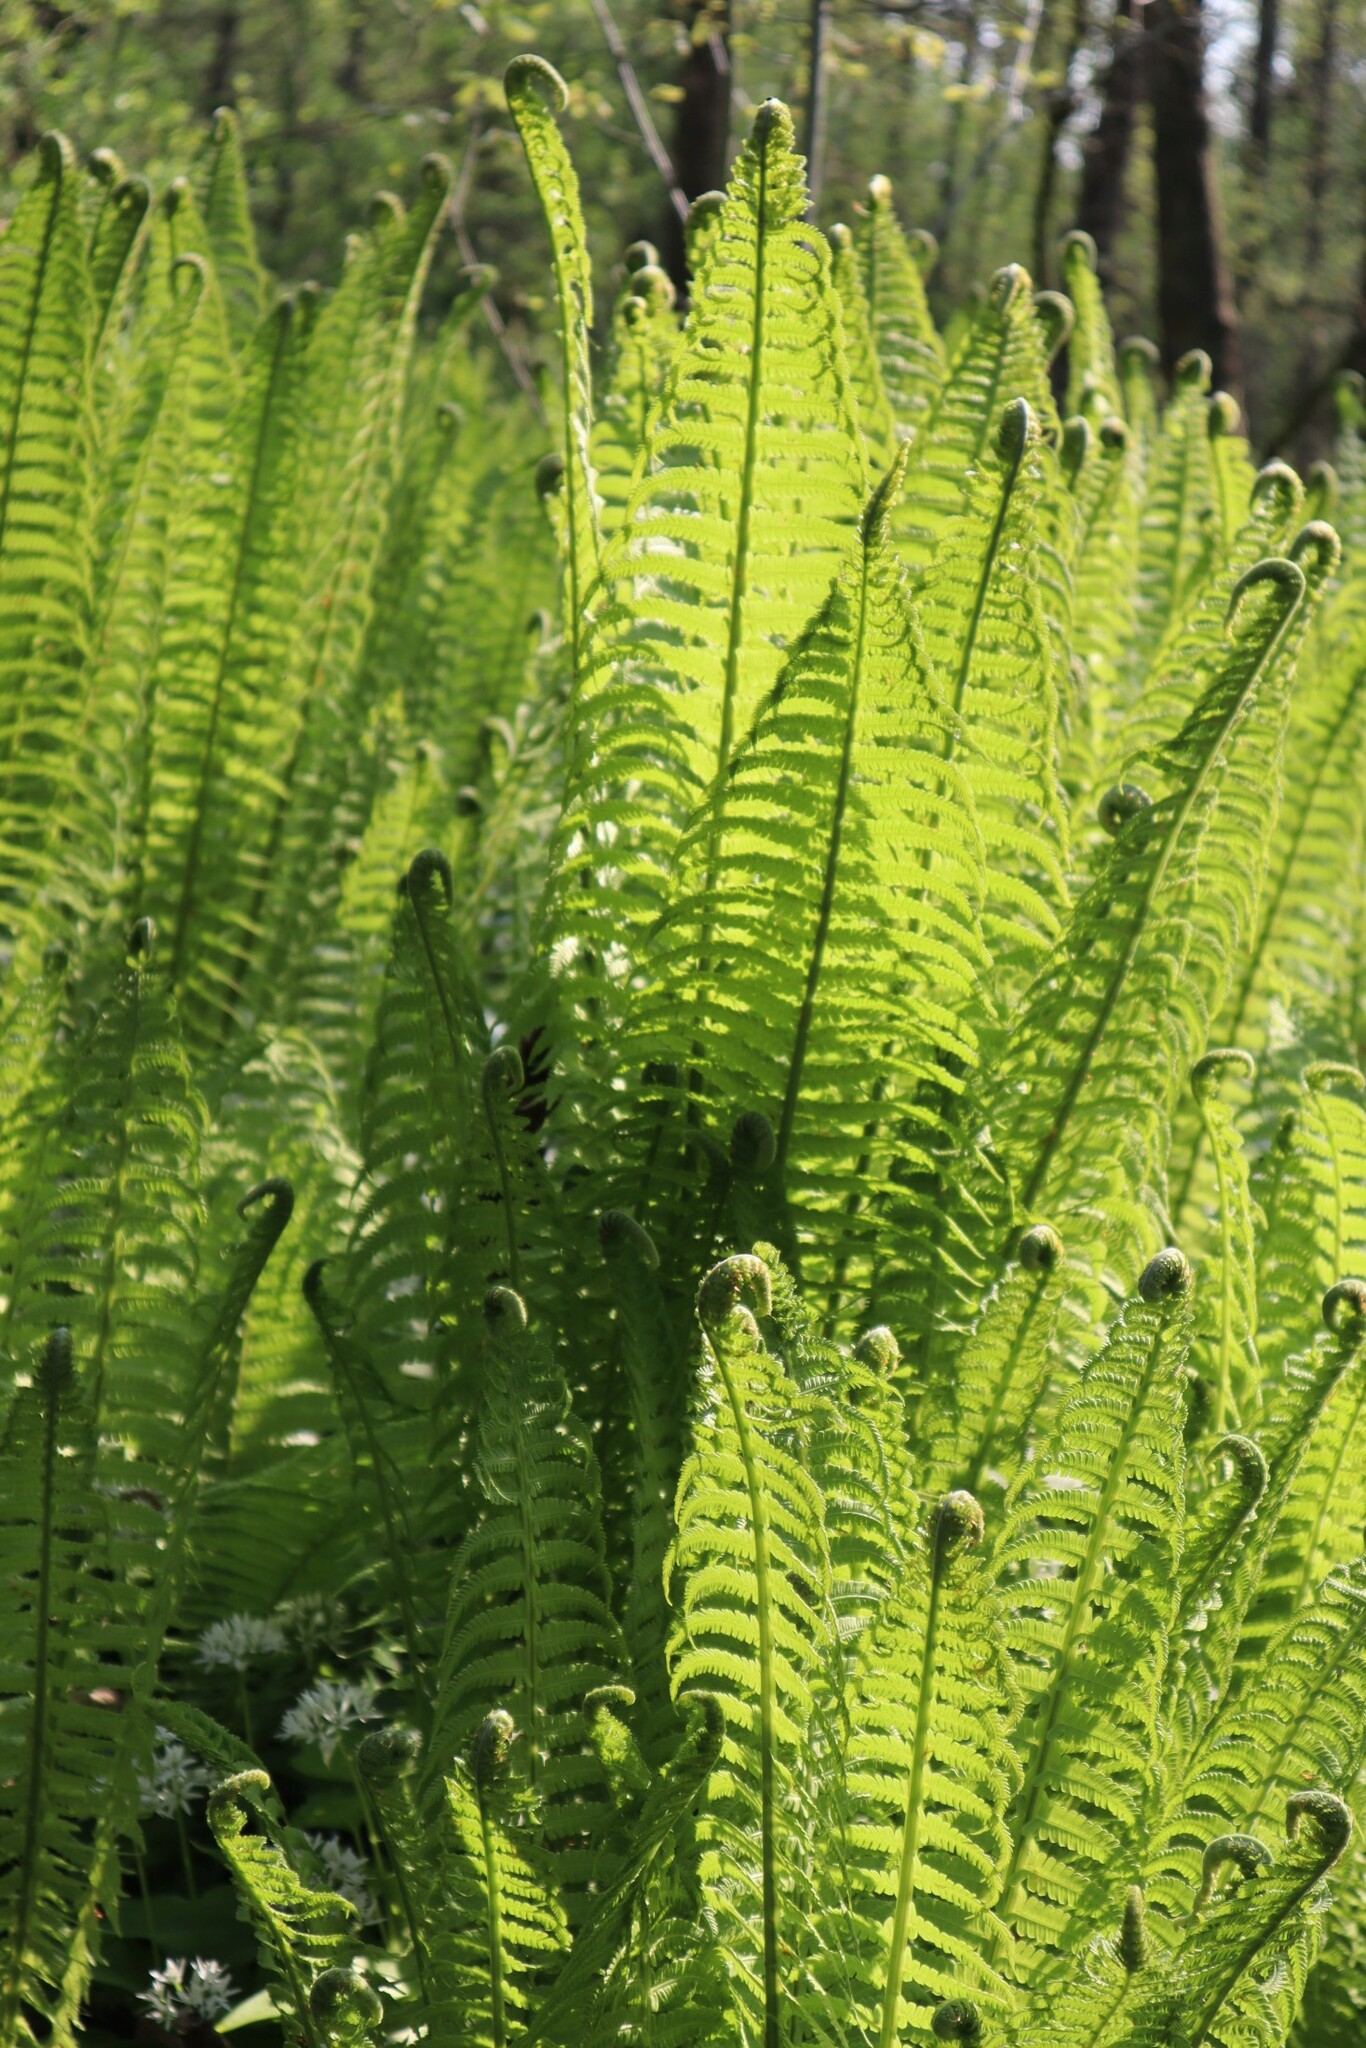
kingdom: Plantae
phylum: Tracheophyta
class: Polypodiopsida
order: Polypodiales
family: Onocleaceae
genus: Matteuccia
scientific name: Matteuccia struthiopteris
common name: Ostrich fern
